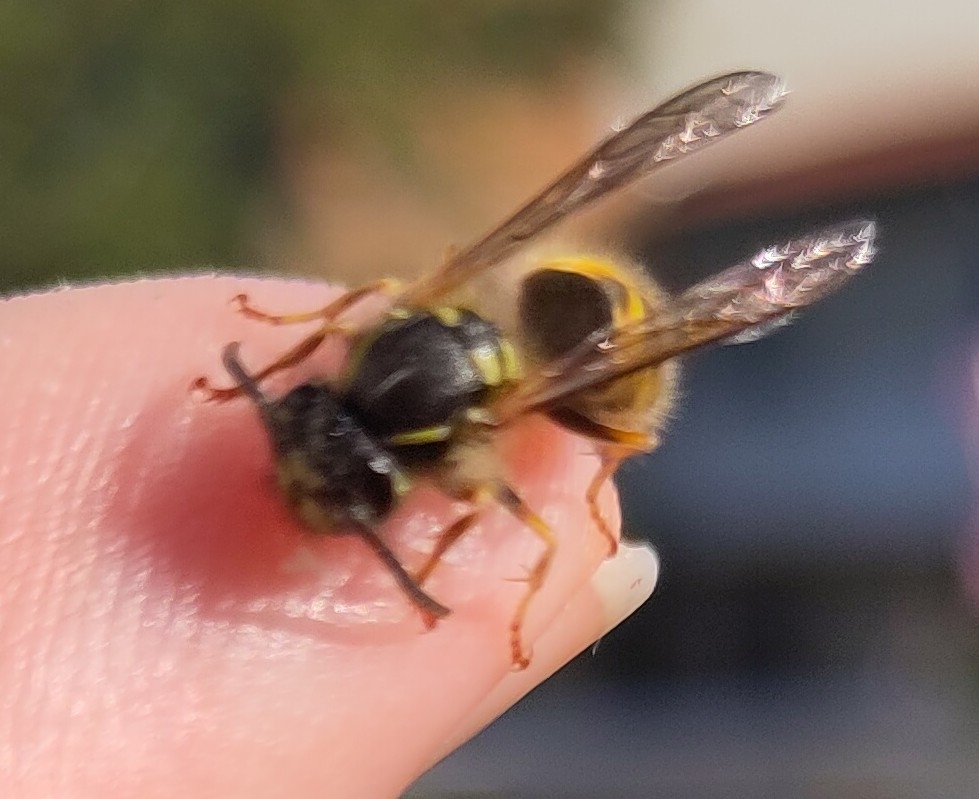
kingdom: Animalia
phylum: Arthropoda
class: Insecta
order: Hymenoptera
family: Vespidae
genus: Vespula
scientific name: Vespula vulgaris
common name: Common wasp
